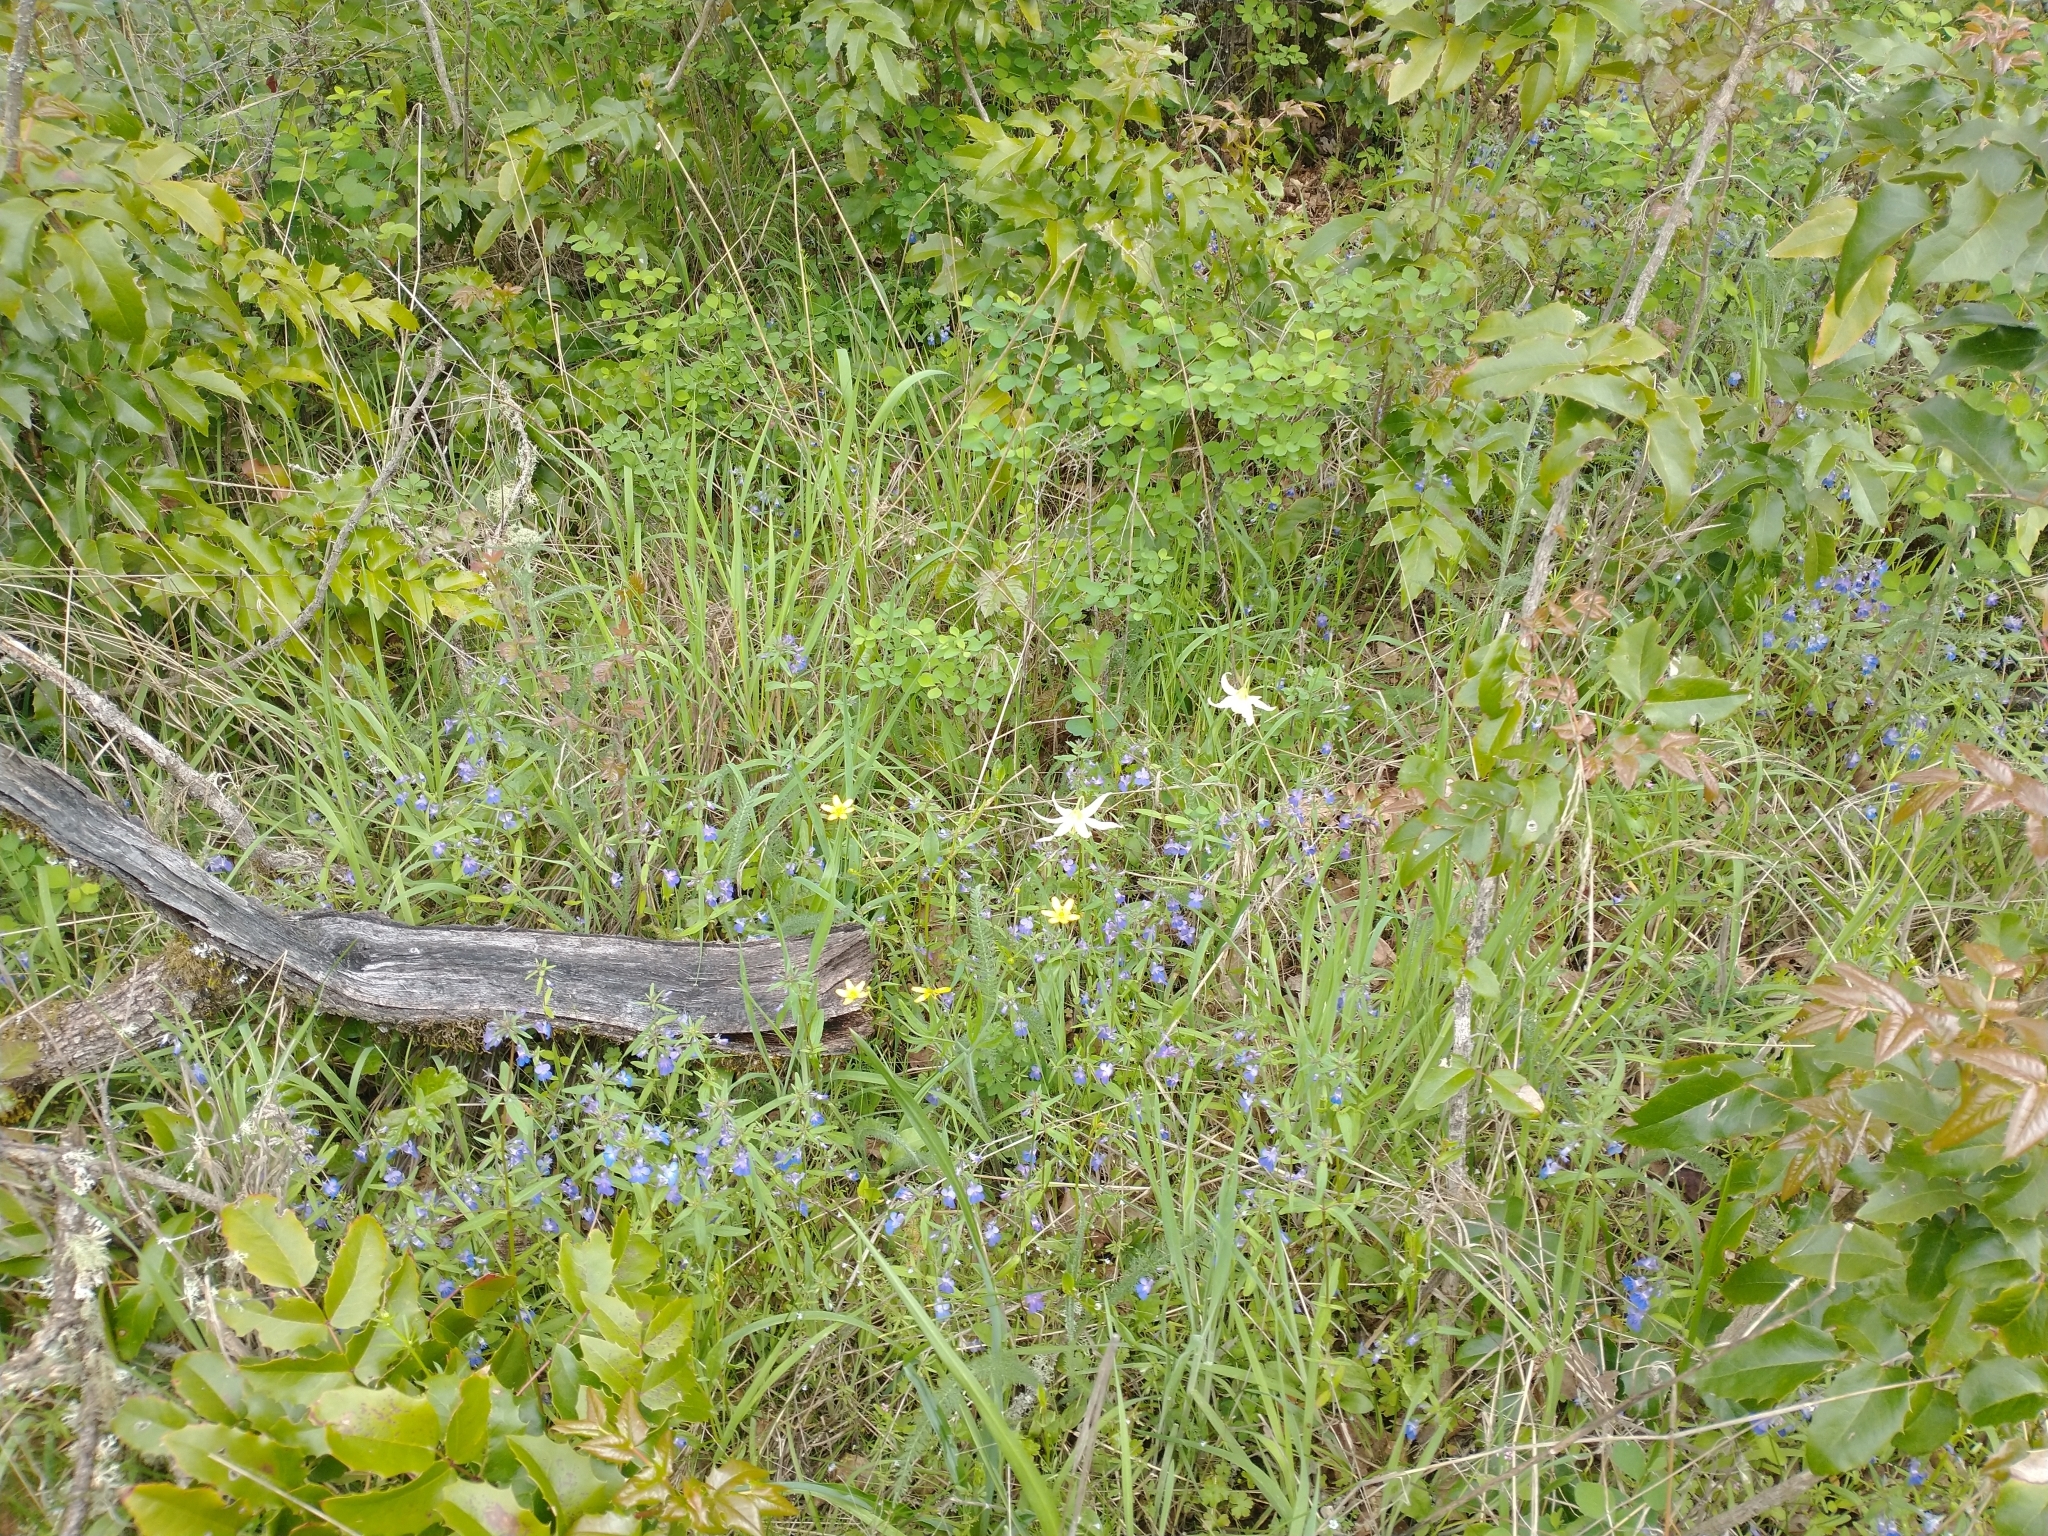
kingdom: Plantae
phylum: Tracheophyta
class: Liliopsida
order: Liliales
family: Liliaceae
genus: Erythronium
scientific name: Erythronium oregonum
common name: Giant adder's-tongue
